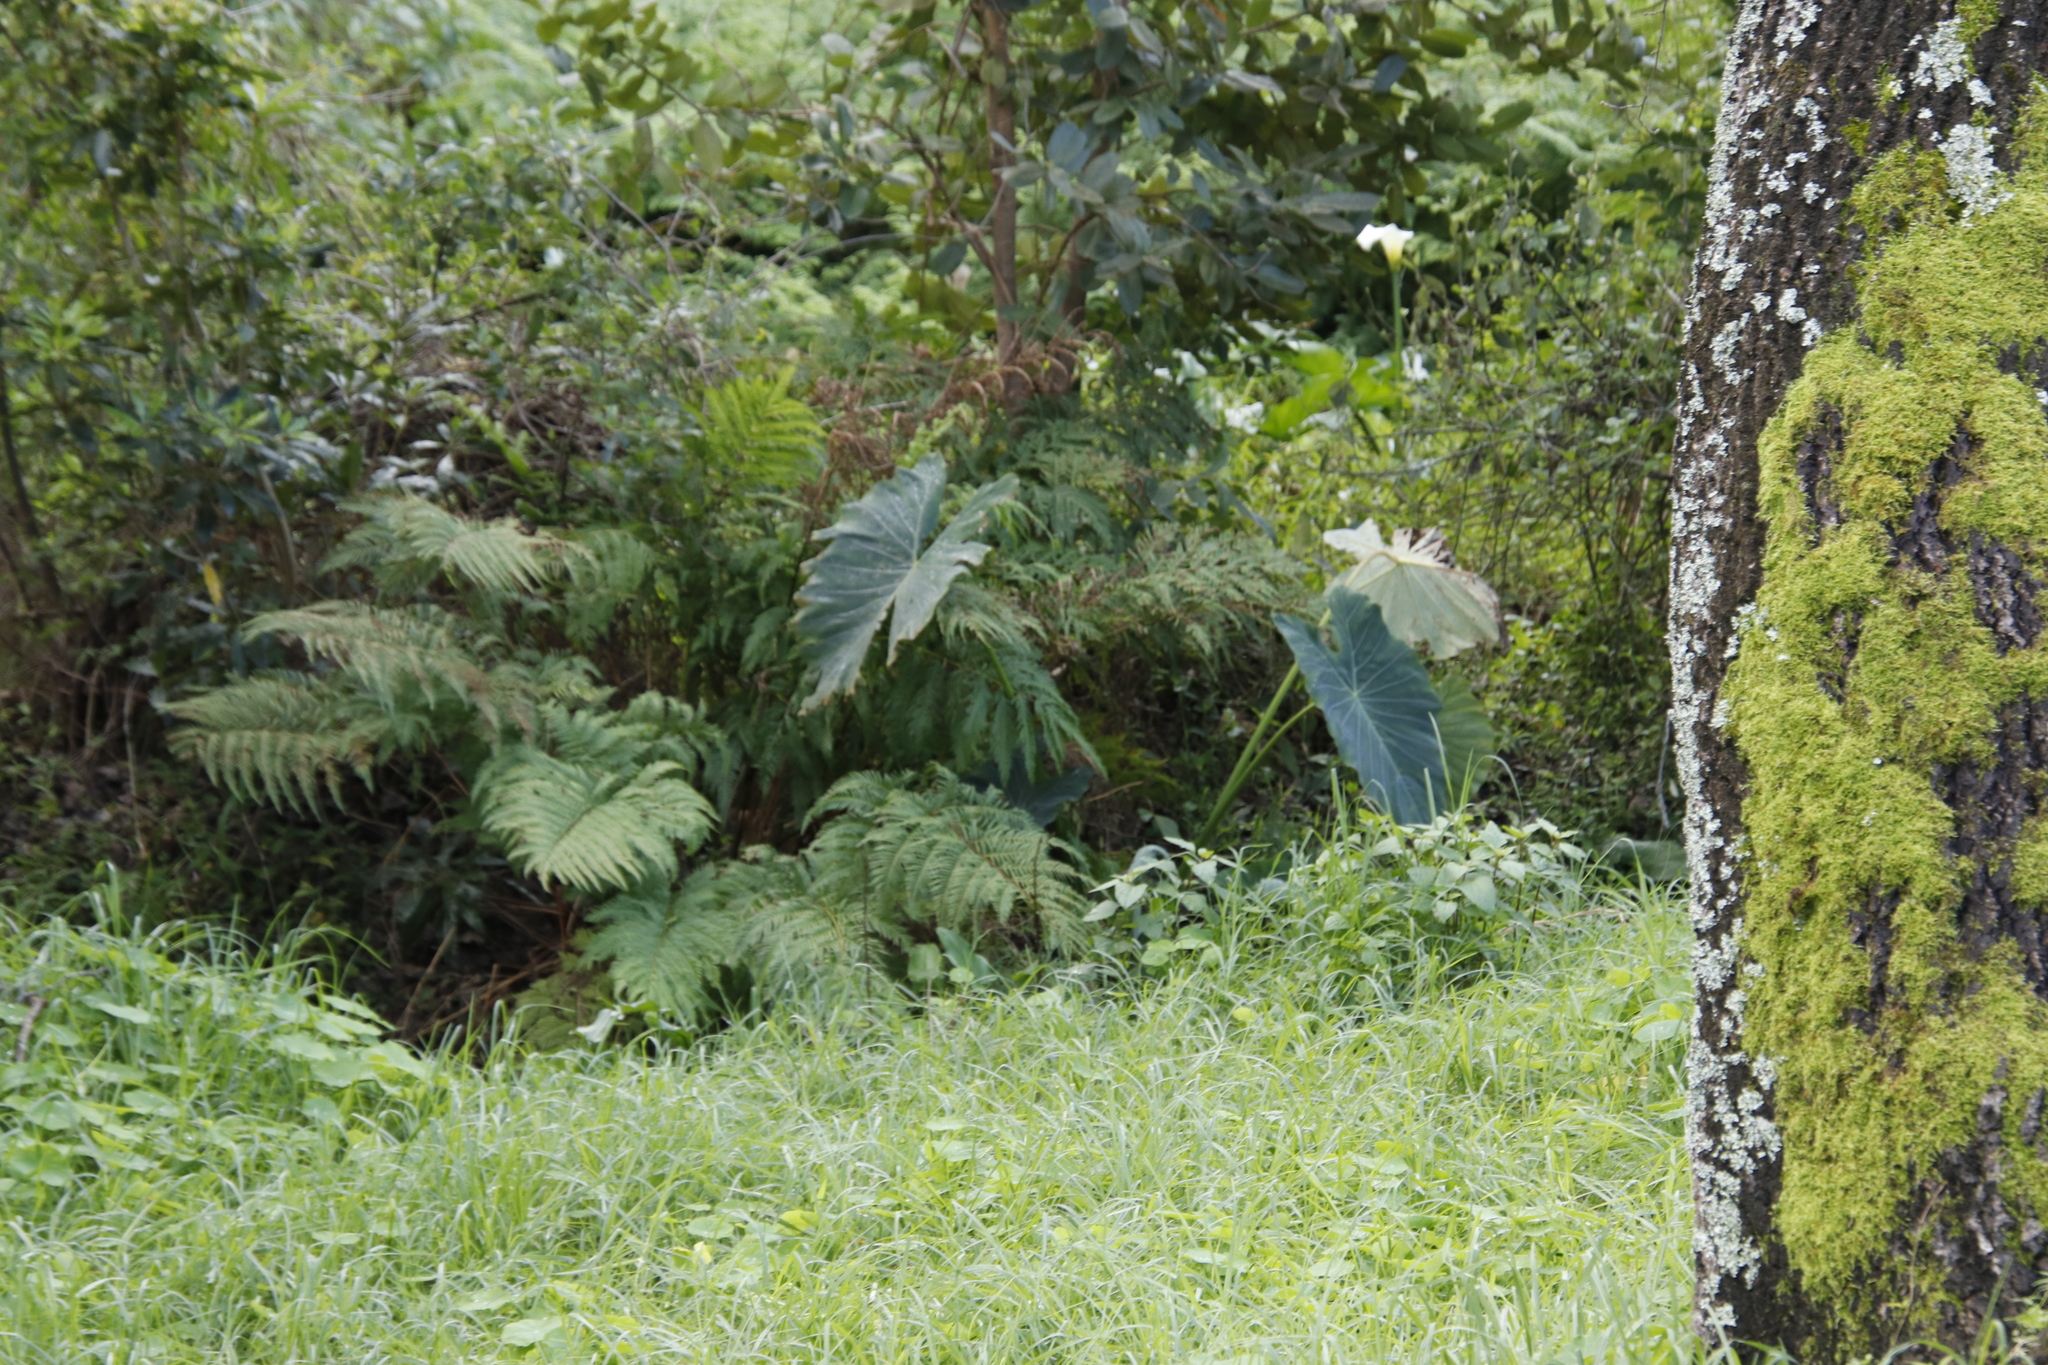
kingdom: Plantae
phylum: Tracheophyta
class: Liliopsida
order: Alismatales
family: Araceae
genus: Colocasia
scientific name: Colocasia esculenta
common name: Taro
